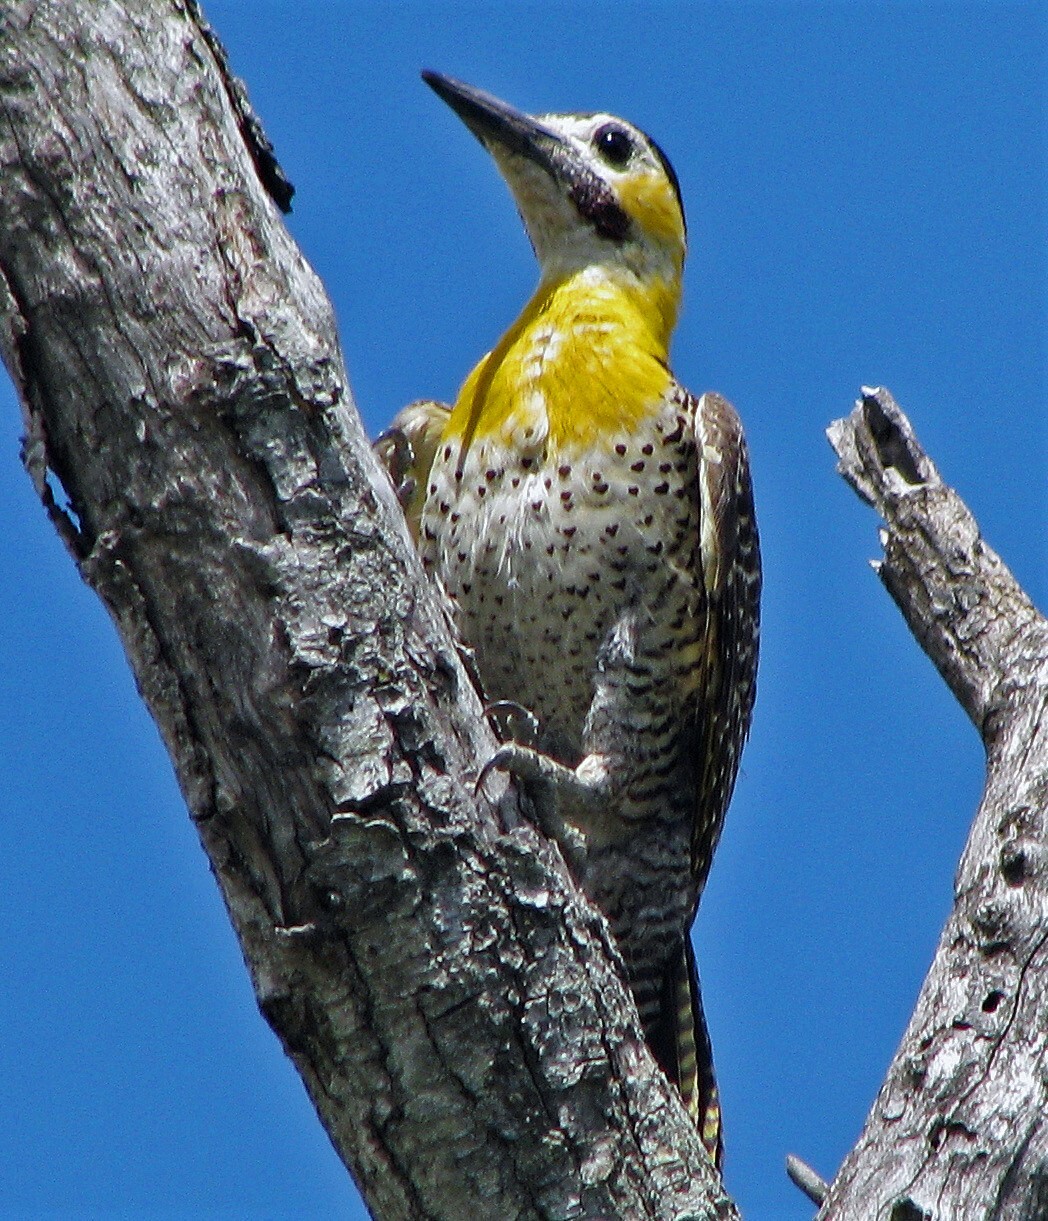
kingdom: Animalia
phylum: Chordata
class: Aves
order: Piciformes
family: Picidae
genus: Colaptes
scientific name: Colaptes campestris
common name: Campo flicker
